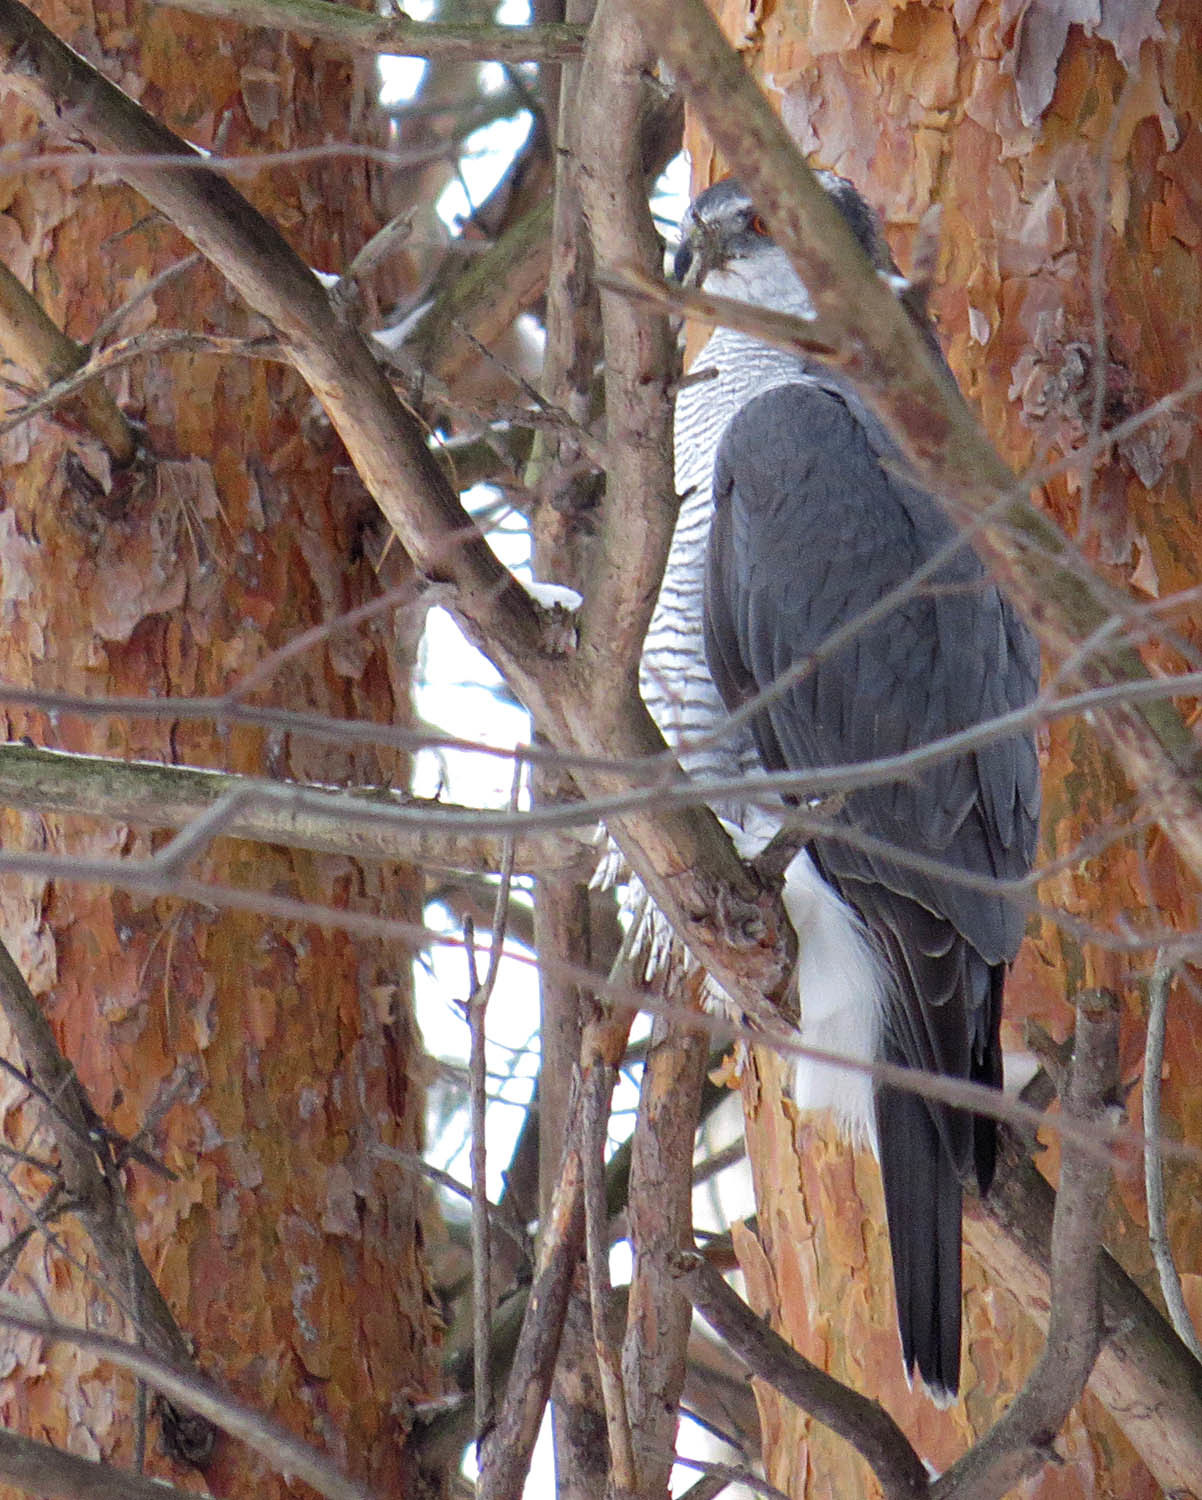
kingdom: Animalia
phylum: Chordata
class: Aves
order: Accipitriformes
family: Accipitridae
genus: Accipiter
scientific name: Accipiter gentilis
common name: Northern goshawk
